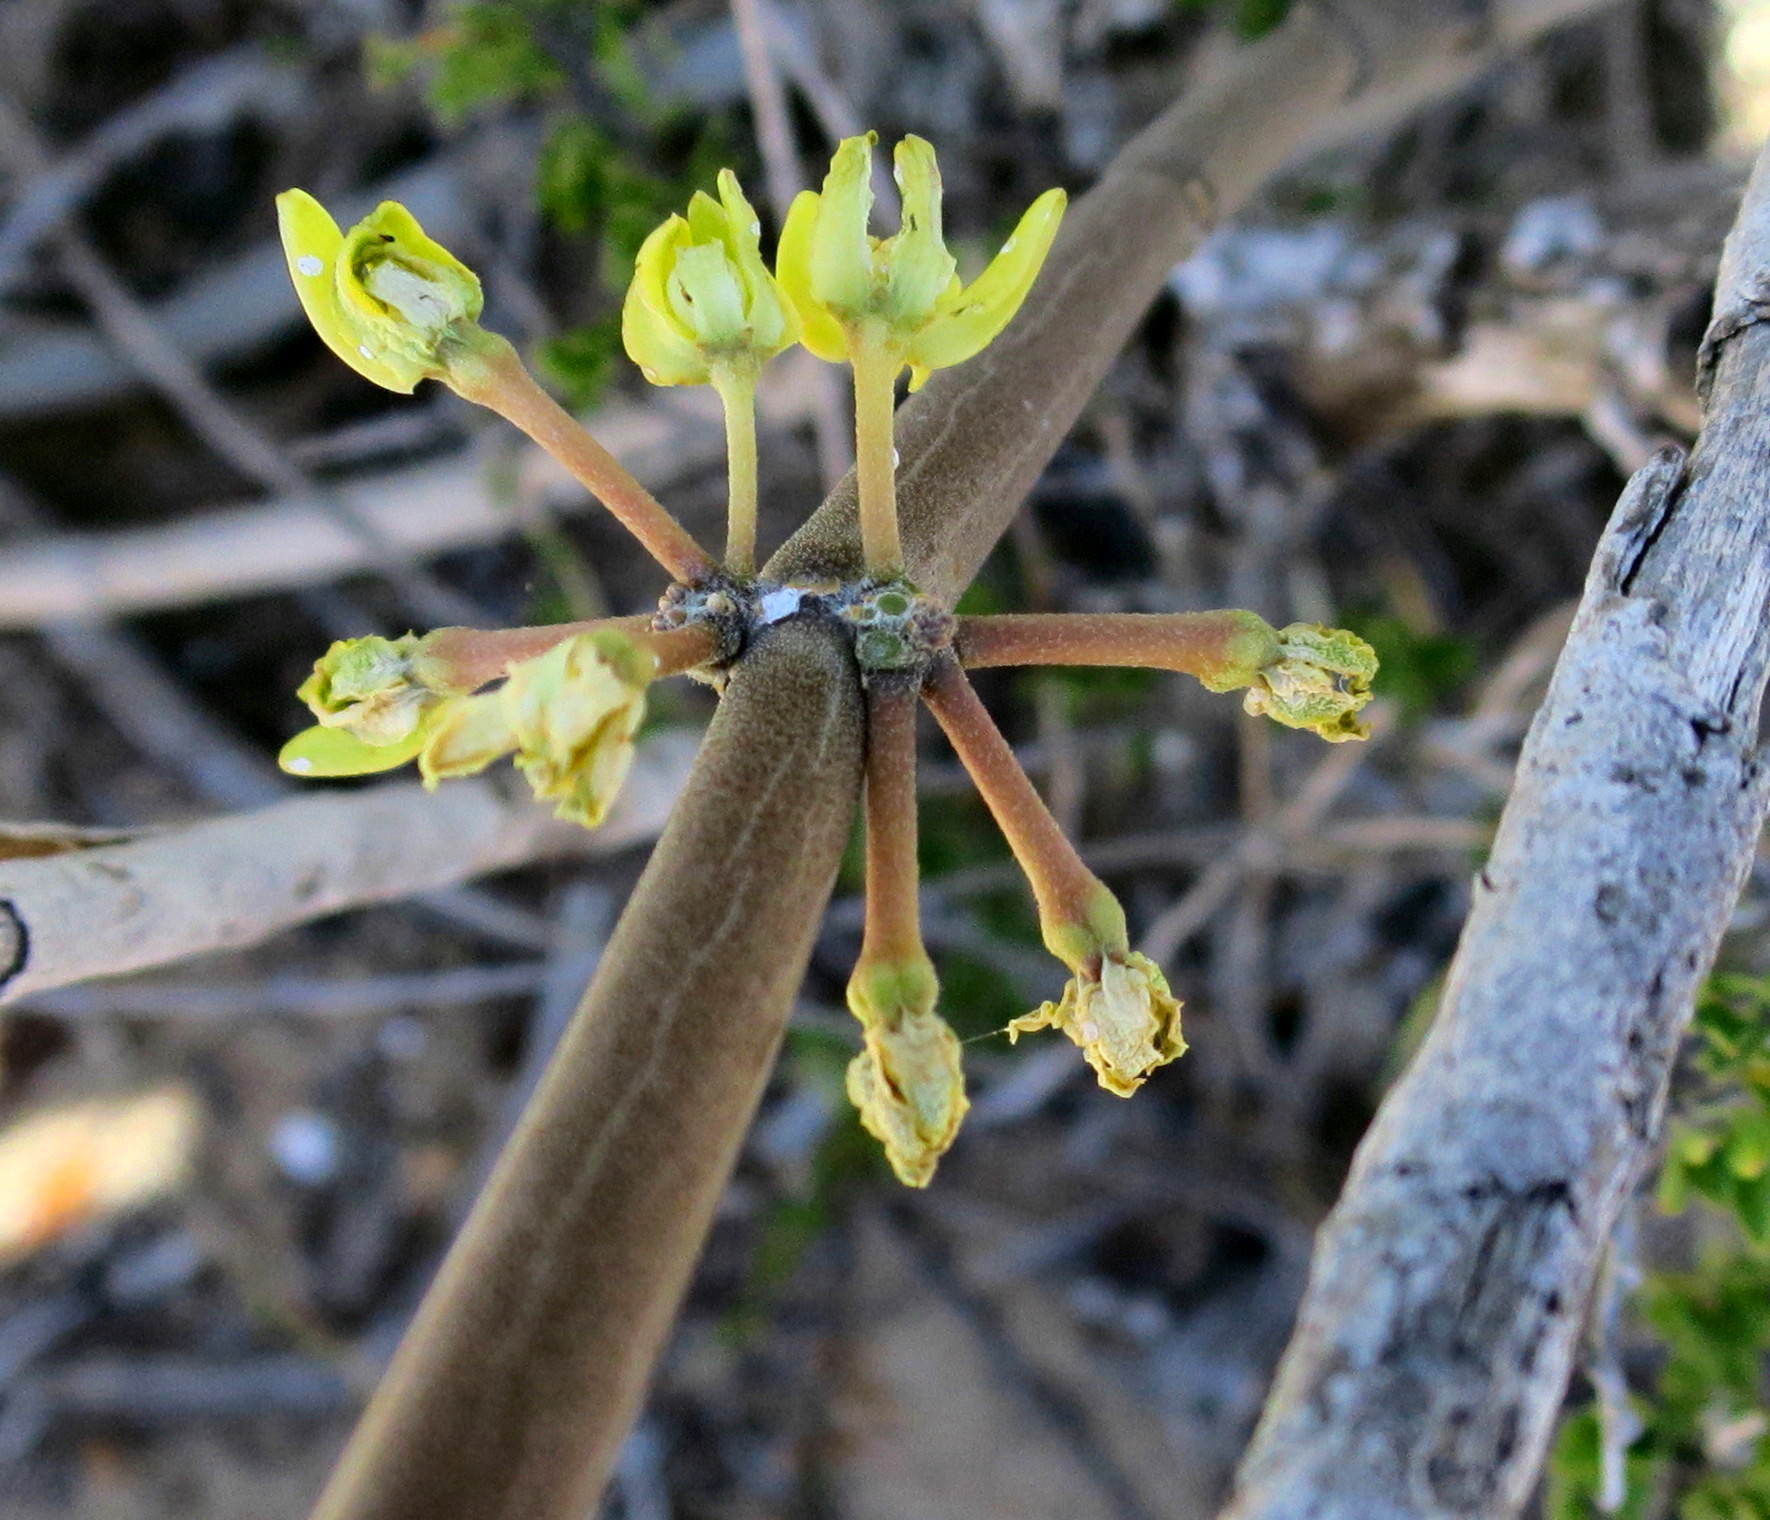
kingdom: Plantae
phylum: Tracheophyta
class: Magnoliopsida
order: Gentianales
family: Apocynaceae
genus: Cynanchum
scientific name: Cynanchum viminale
